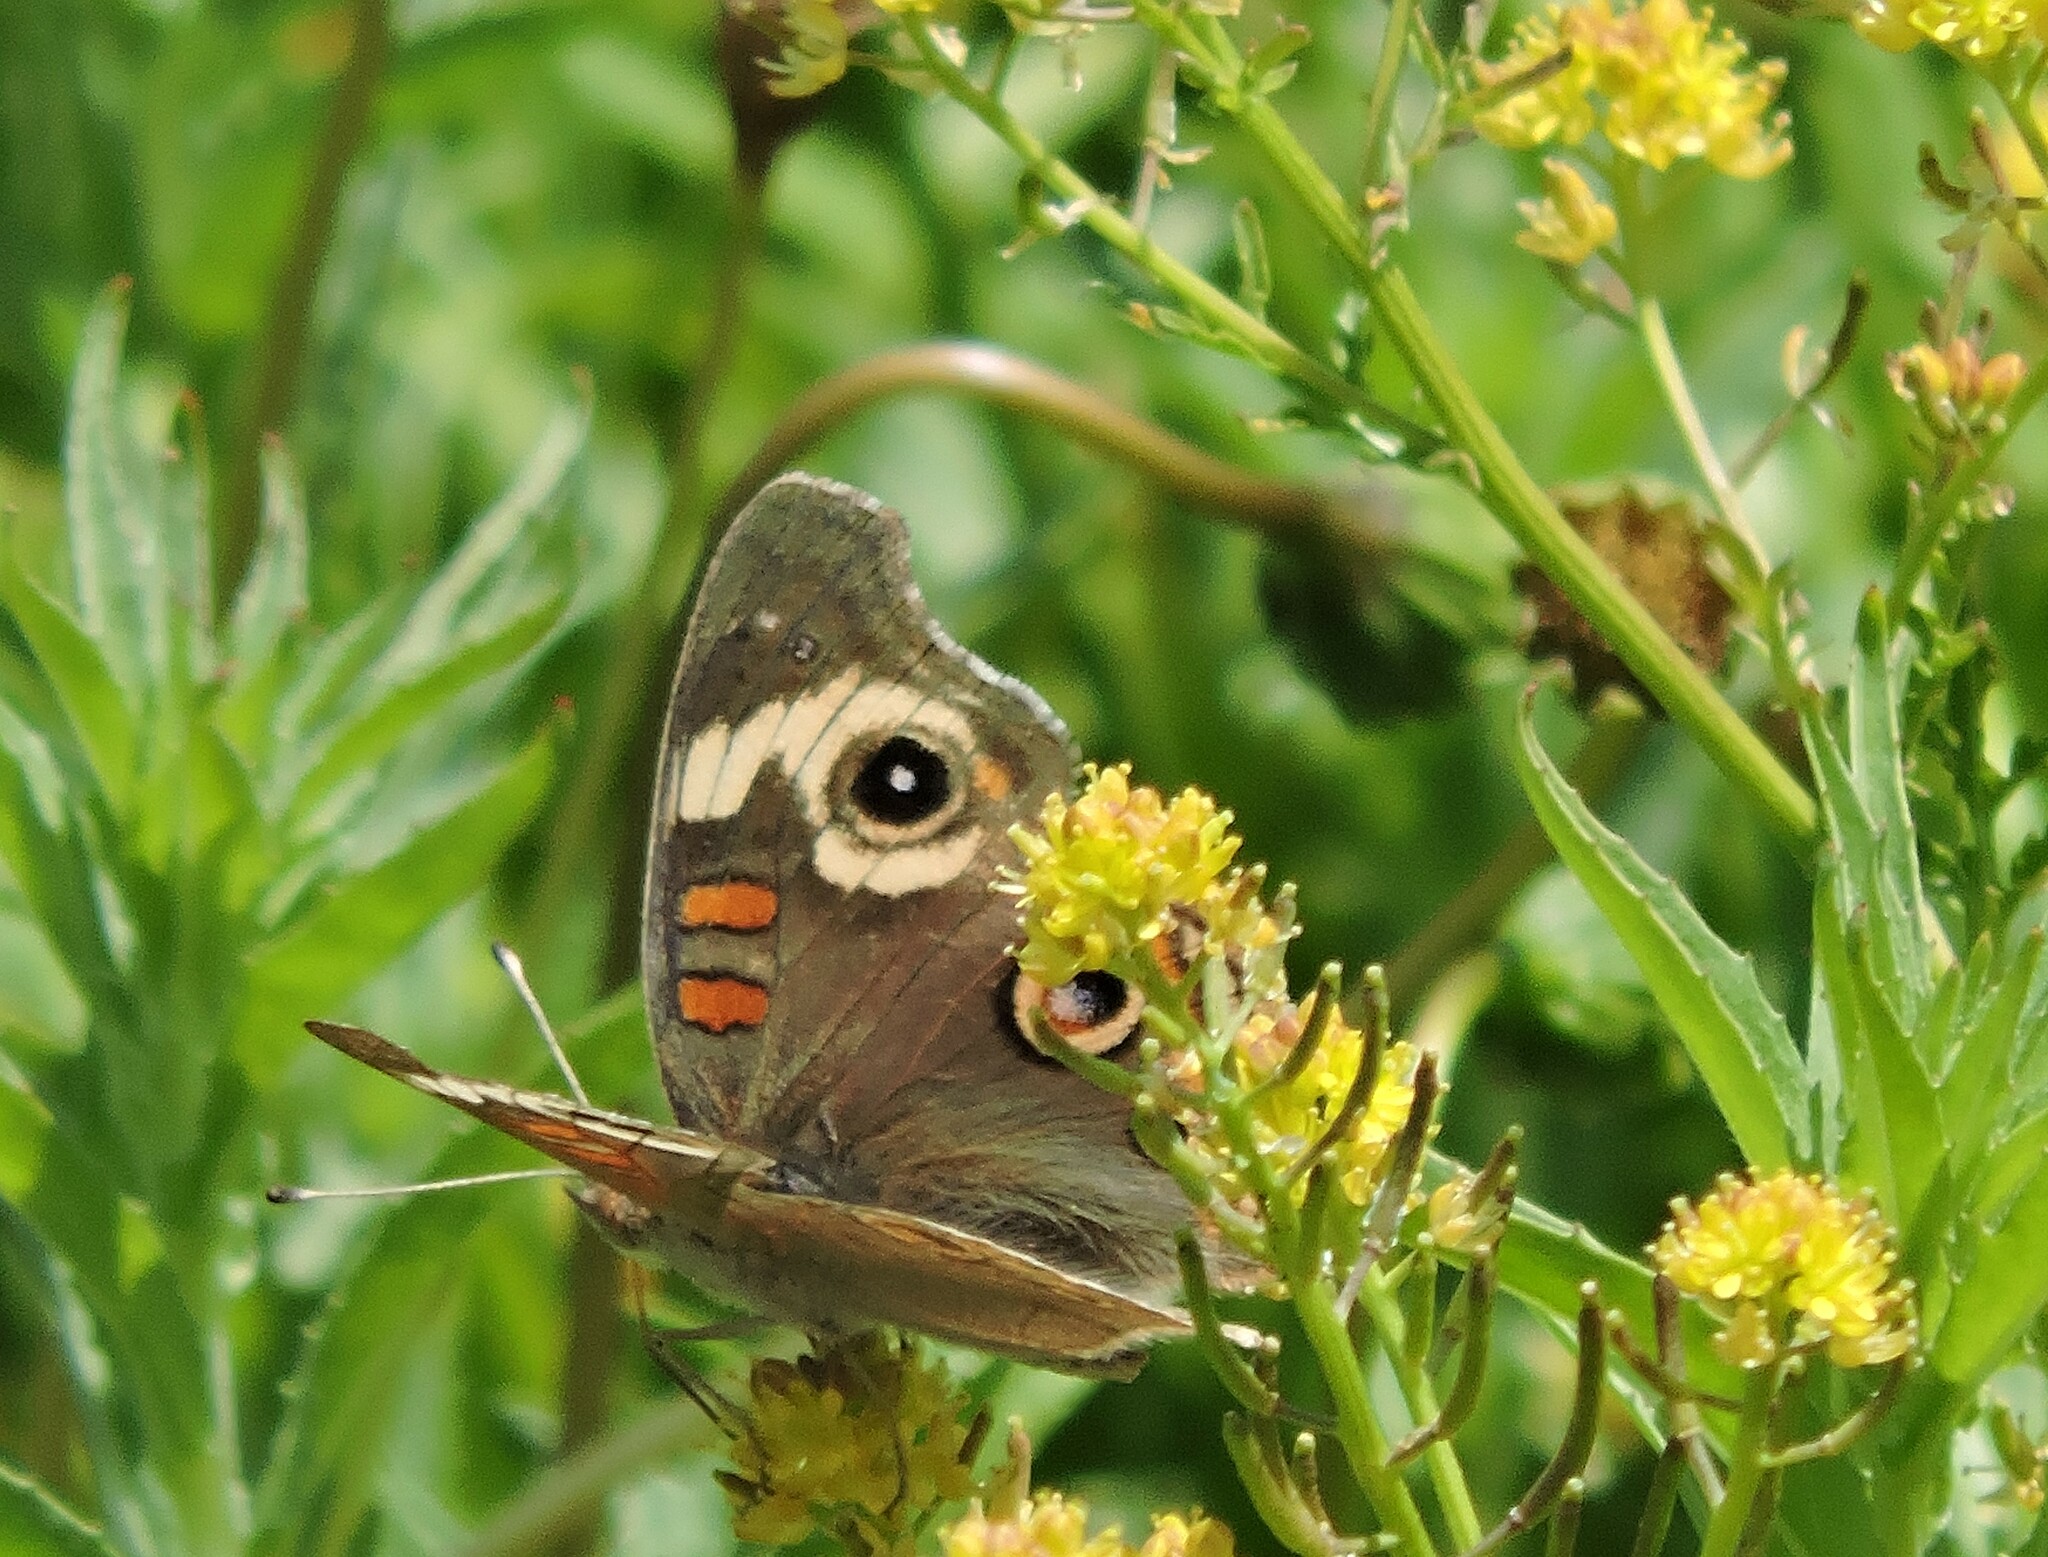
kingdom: Animalia
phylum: Arthropoda
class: Insecta
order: Lepidoptera
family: Nymphalidae
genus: Junonia
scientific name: Junonia grisea
